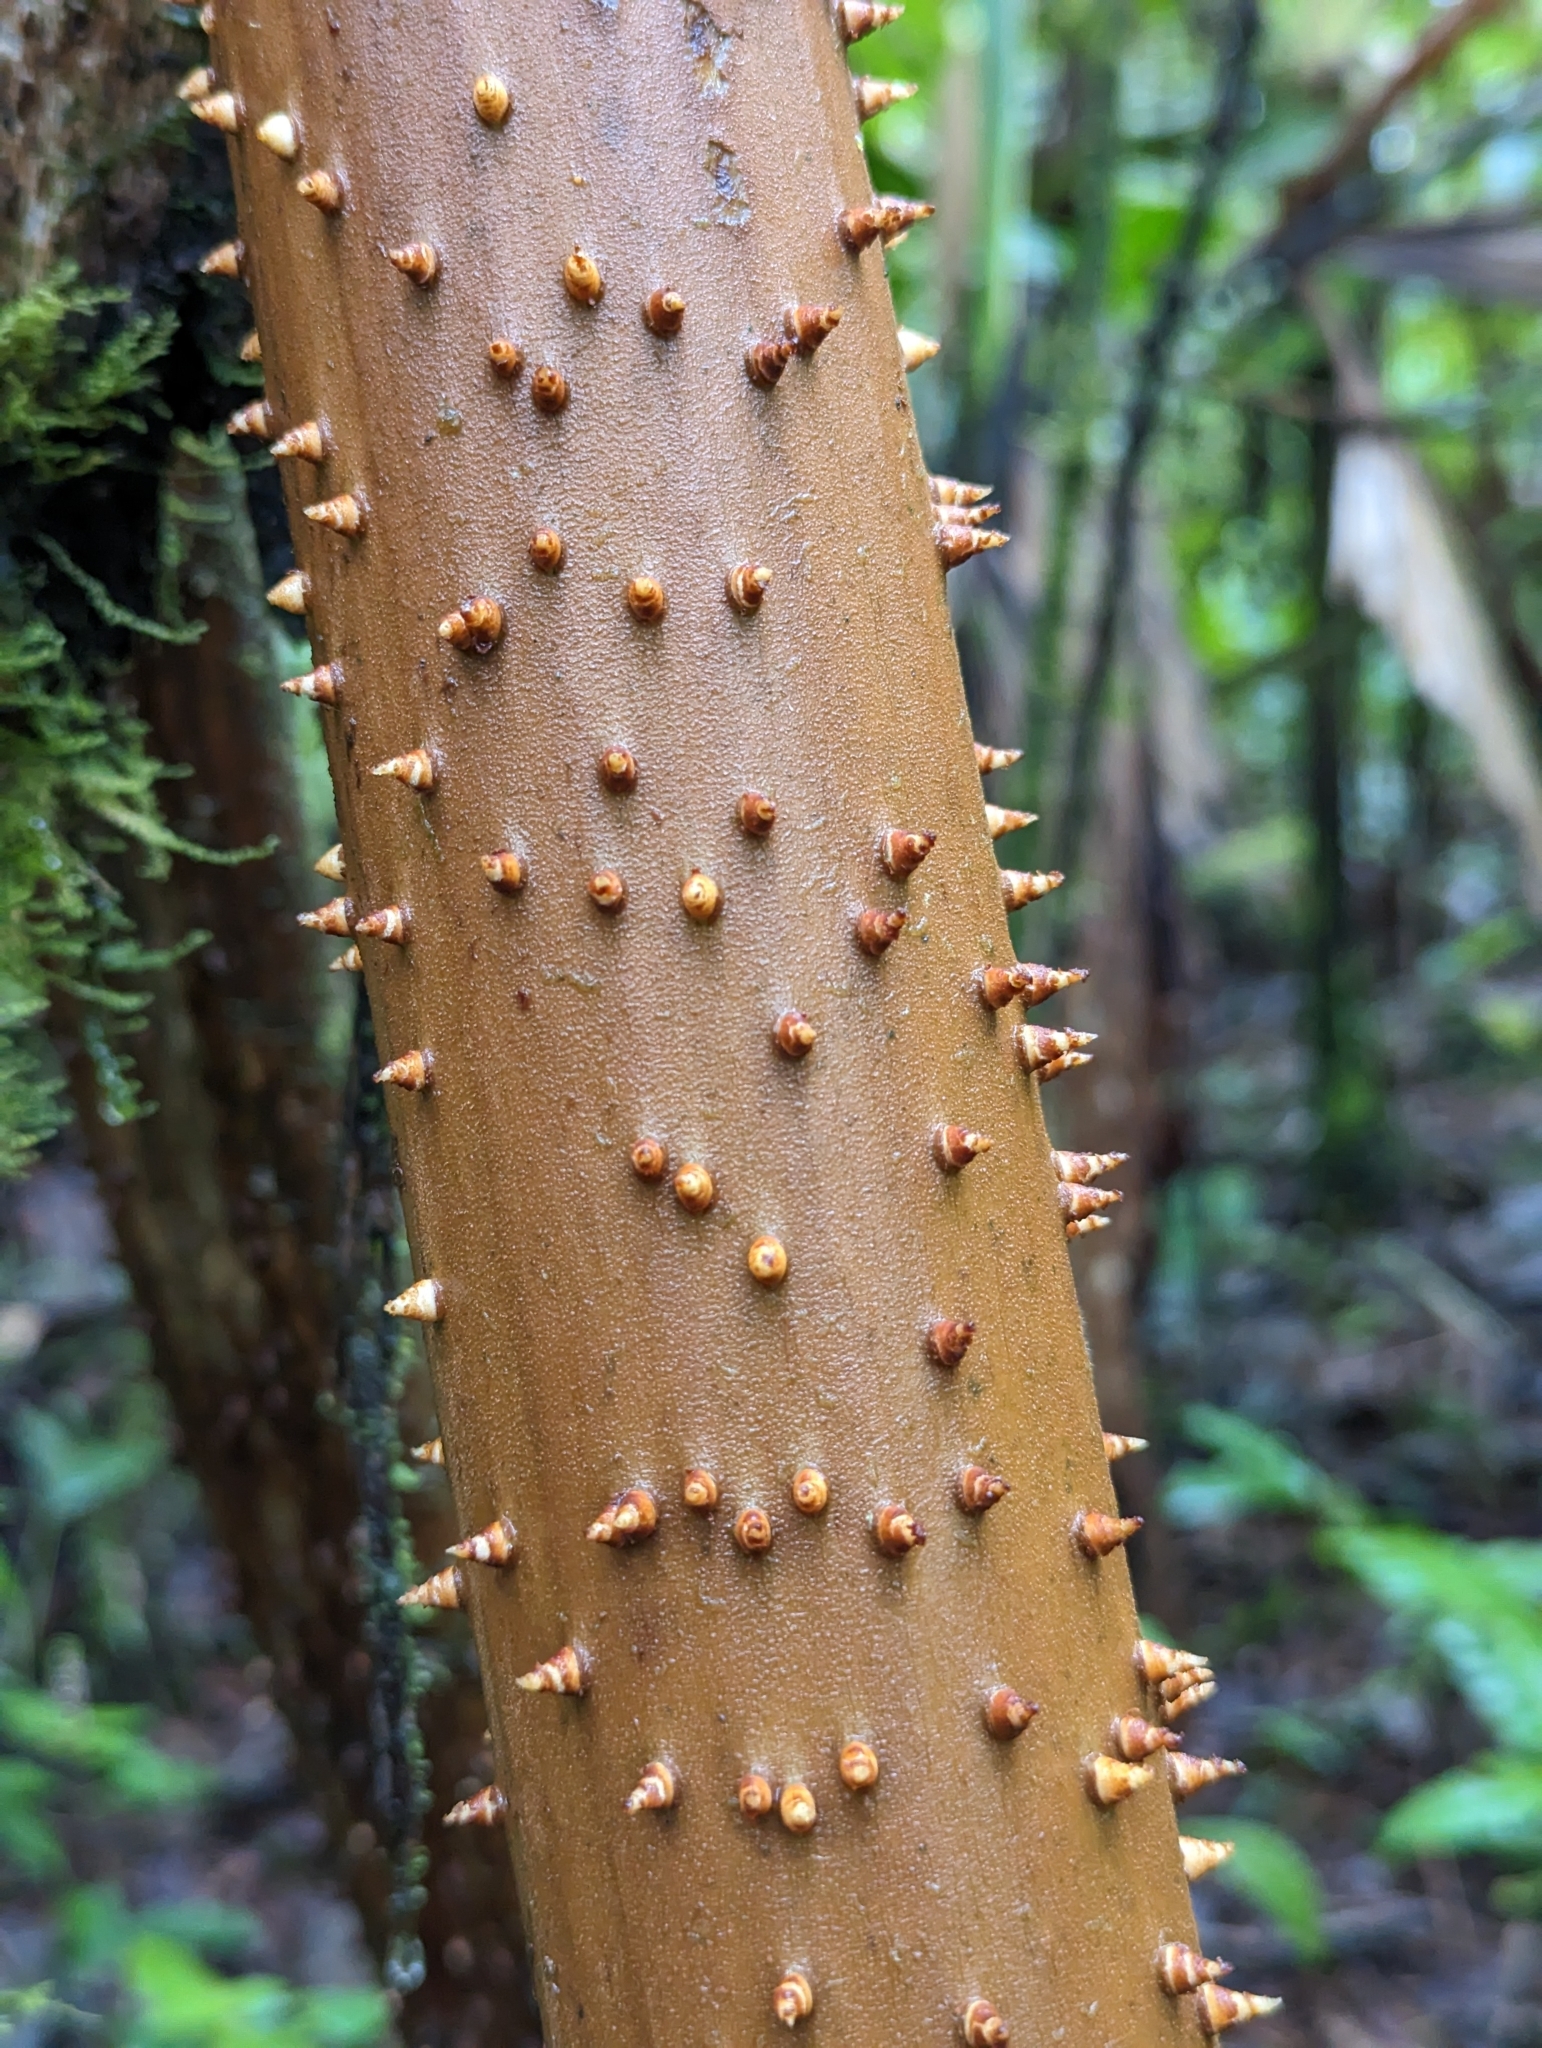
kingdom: Plantae
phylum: Tracheophyta
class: Liliopsida
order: Arecales
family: Arecaceae
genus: Socratea
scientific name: Socratea exorrhiza
